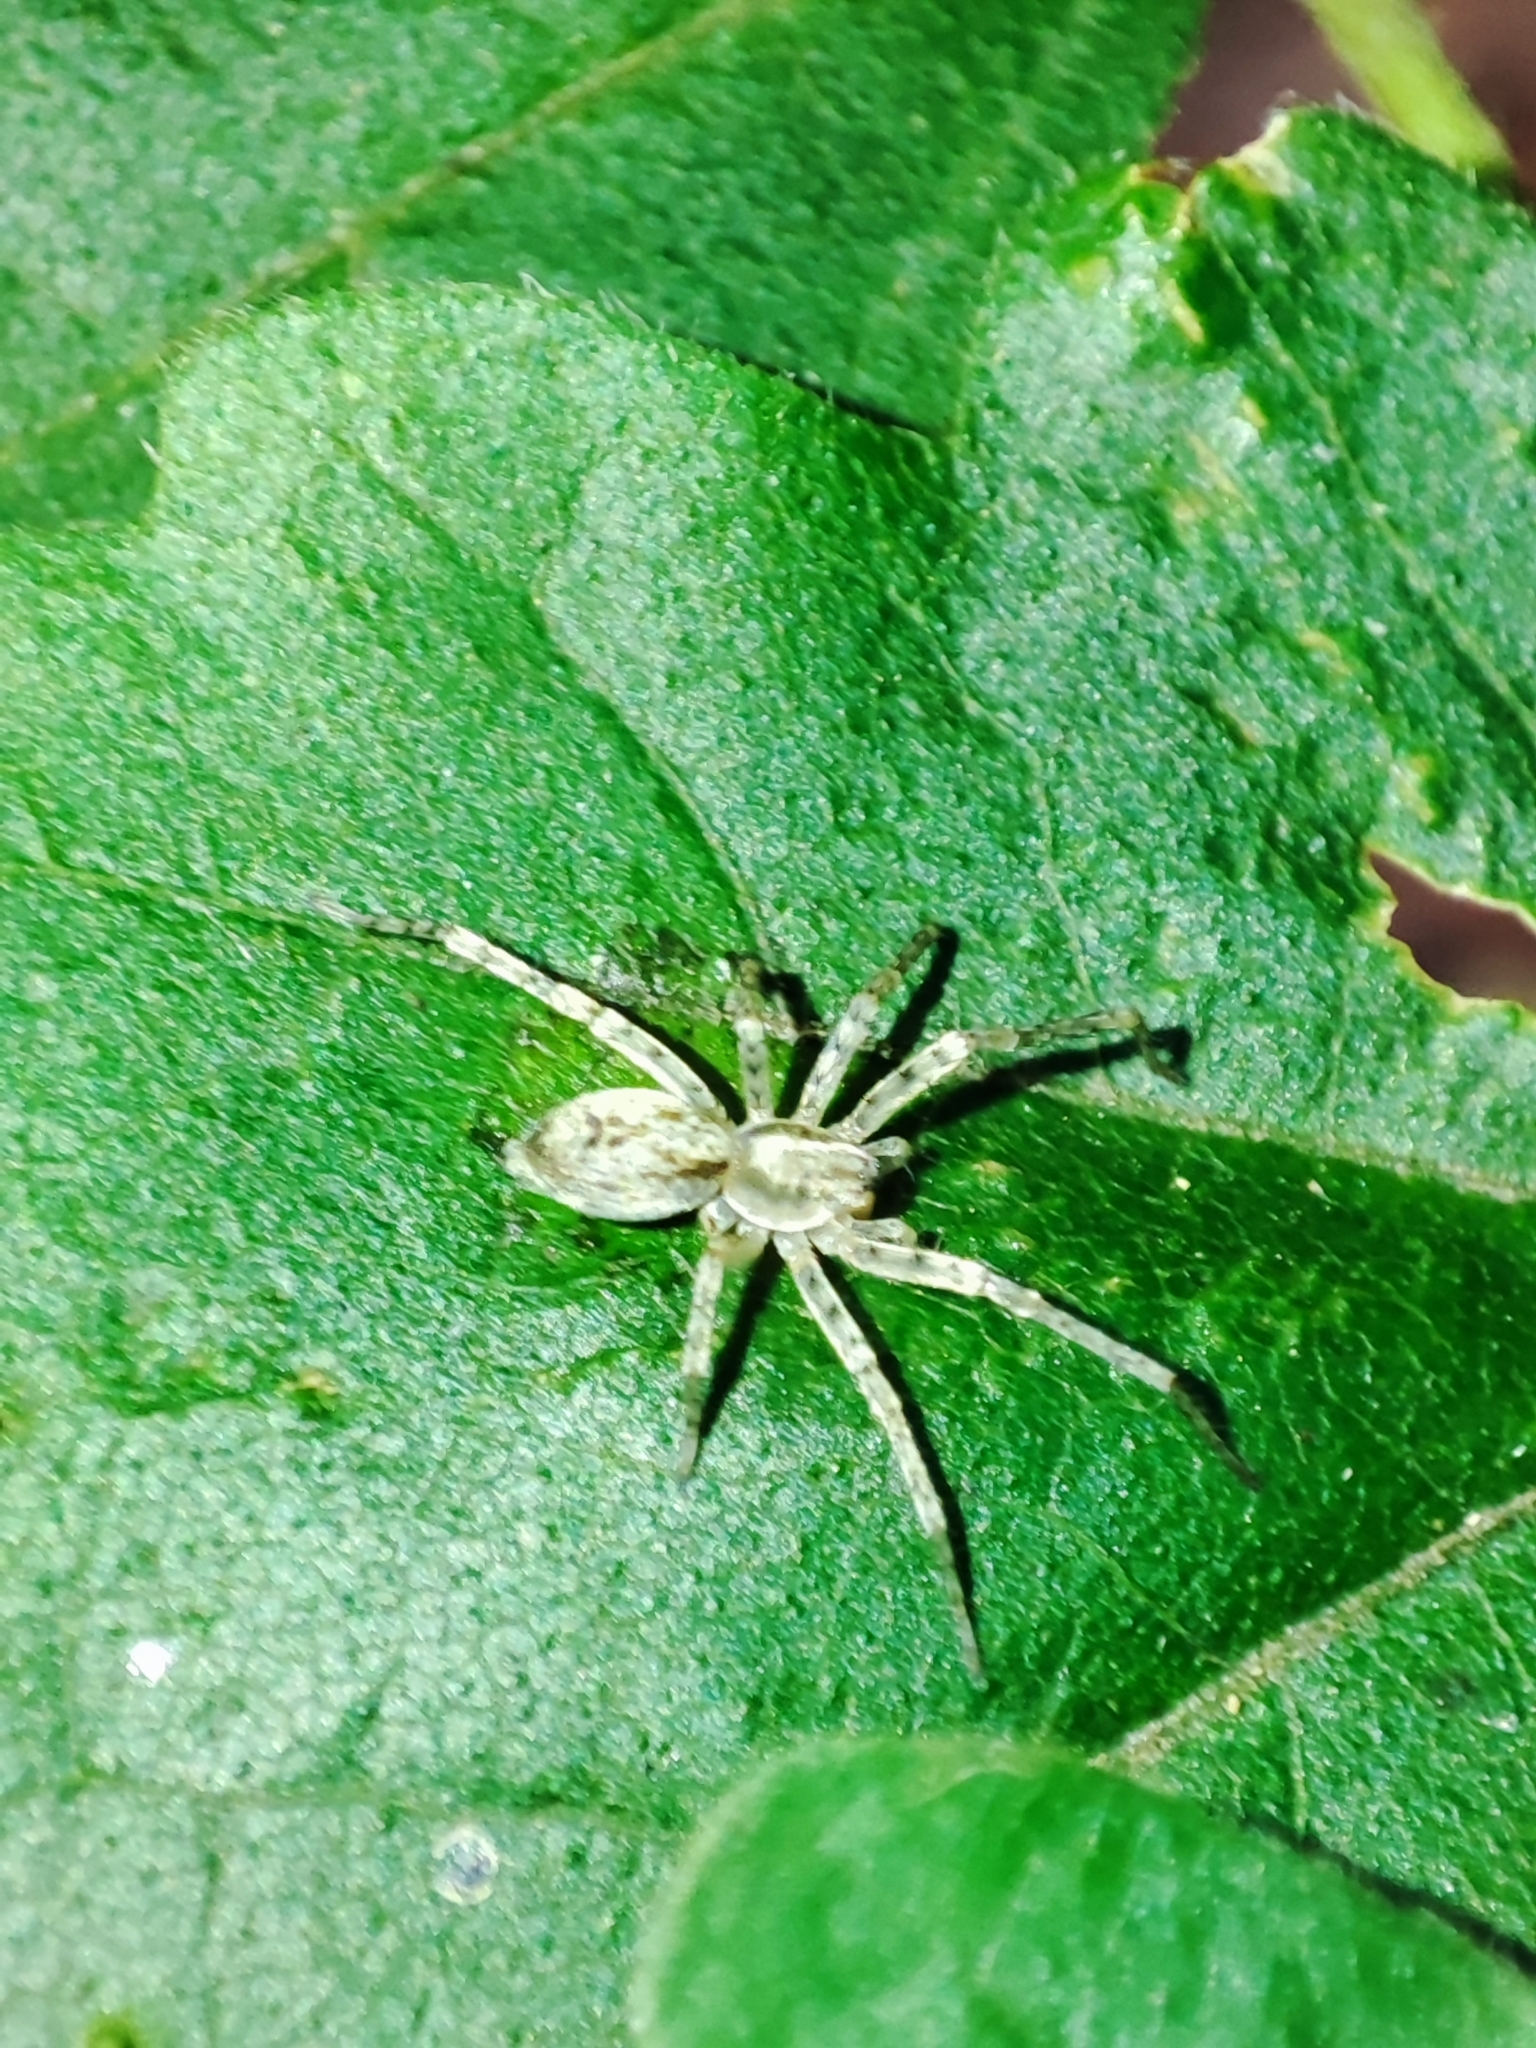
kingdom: Animalia
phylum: Arthropoda
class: Arachnida
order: Araneae
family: Anyphaenidae
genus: Anyphaena
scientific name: Anyphaena accentuata
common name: Buzzing spider
